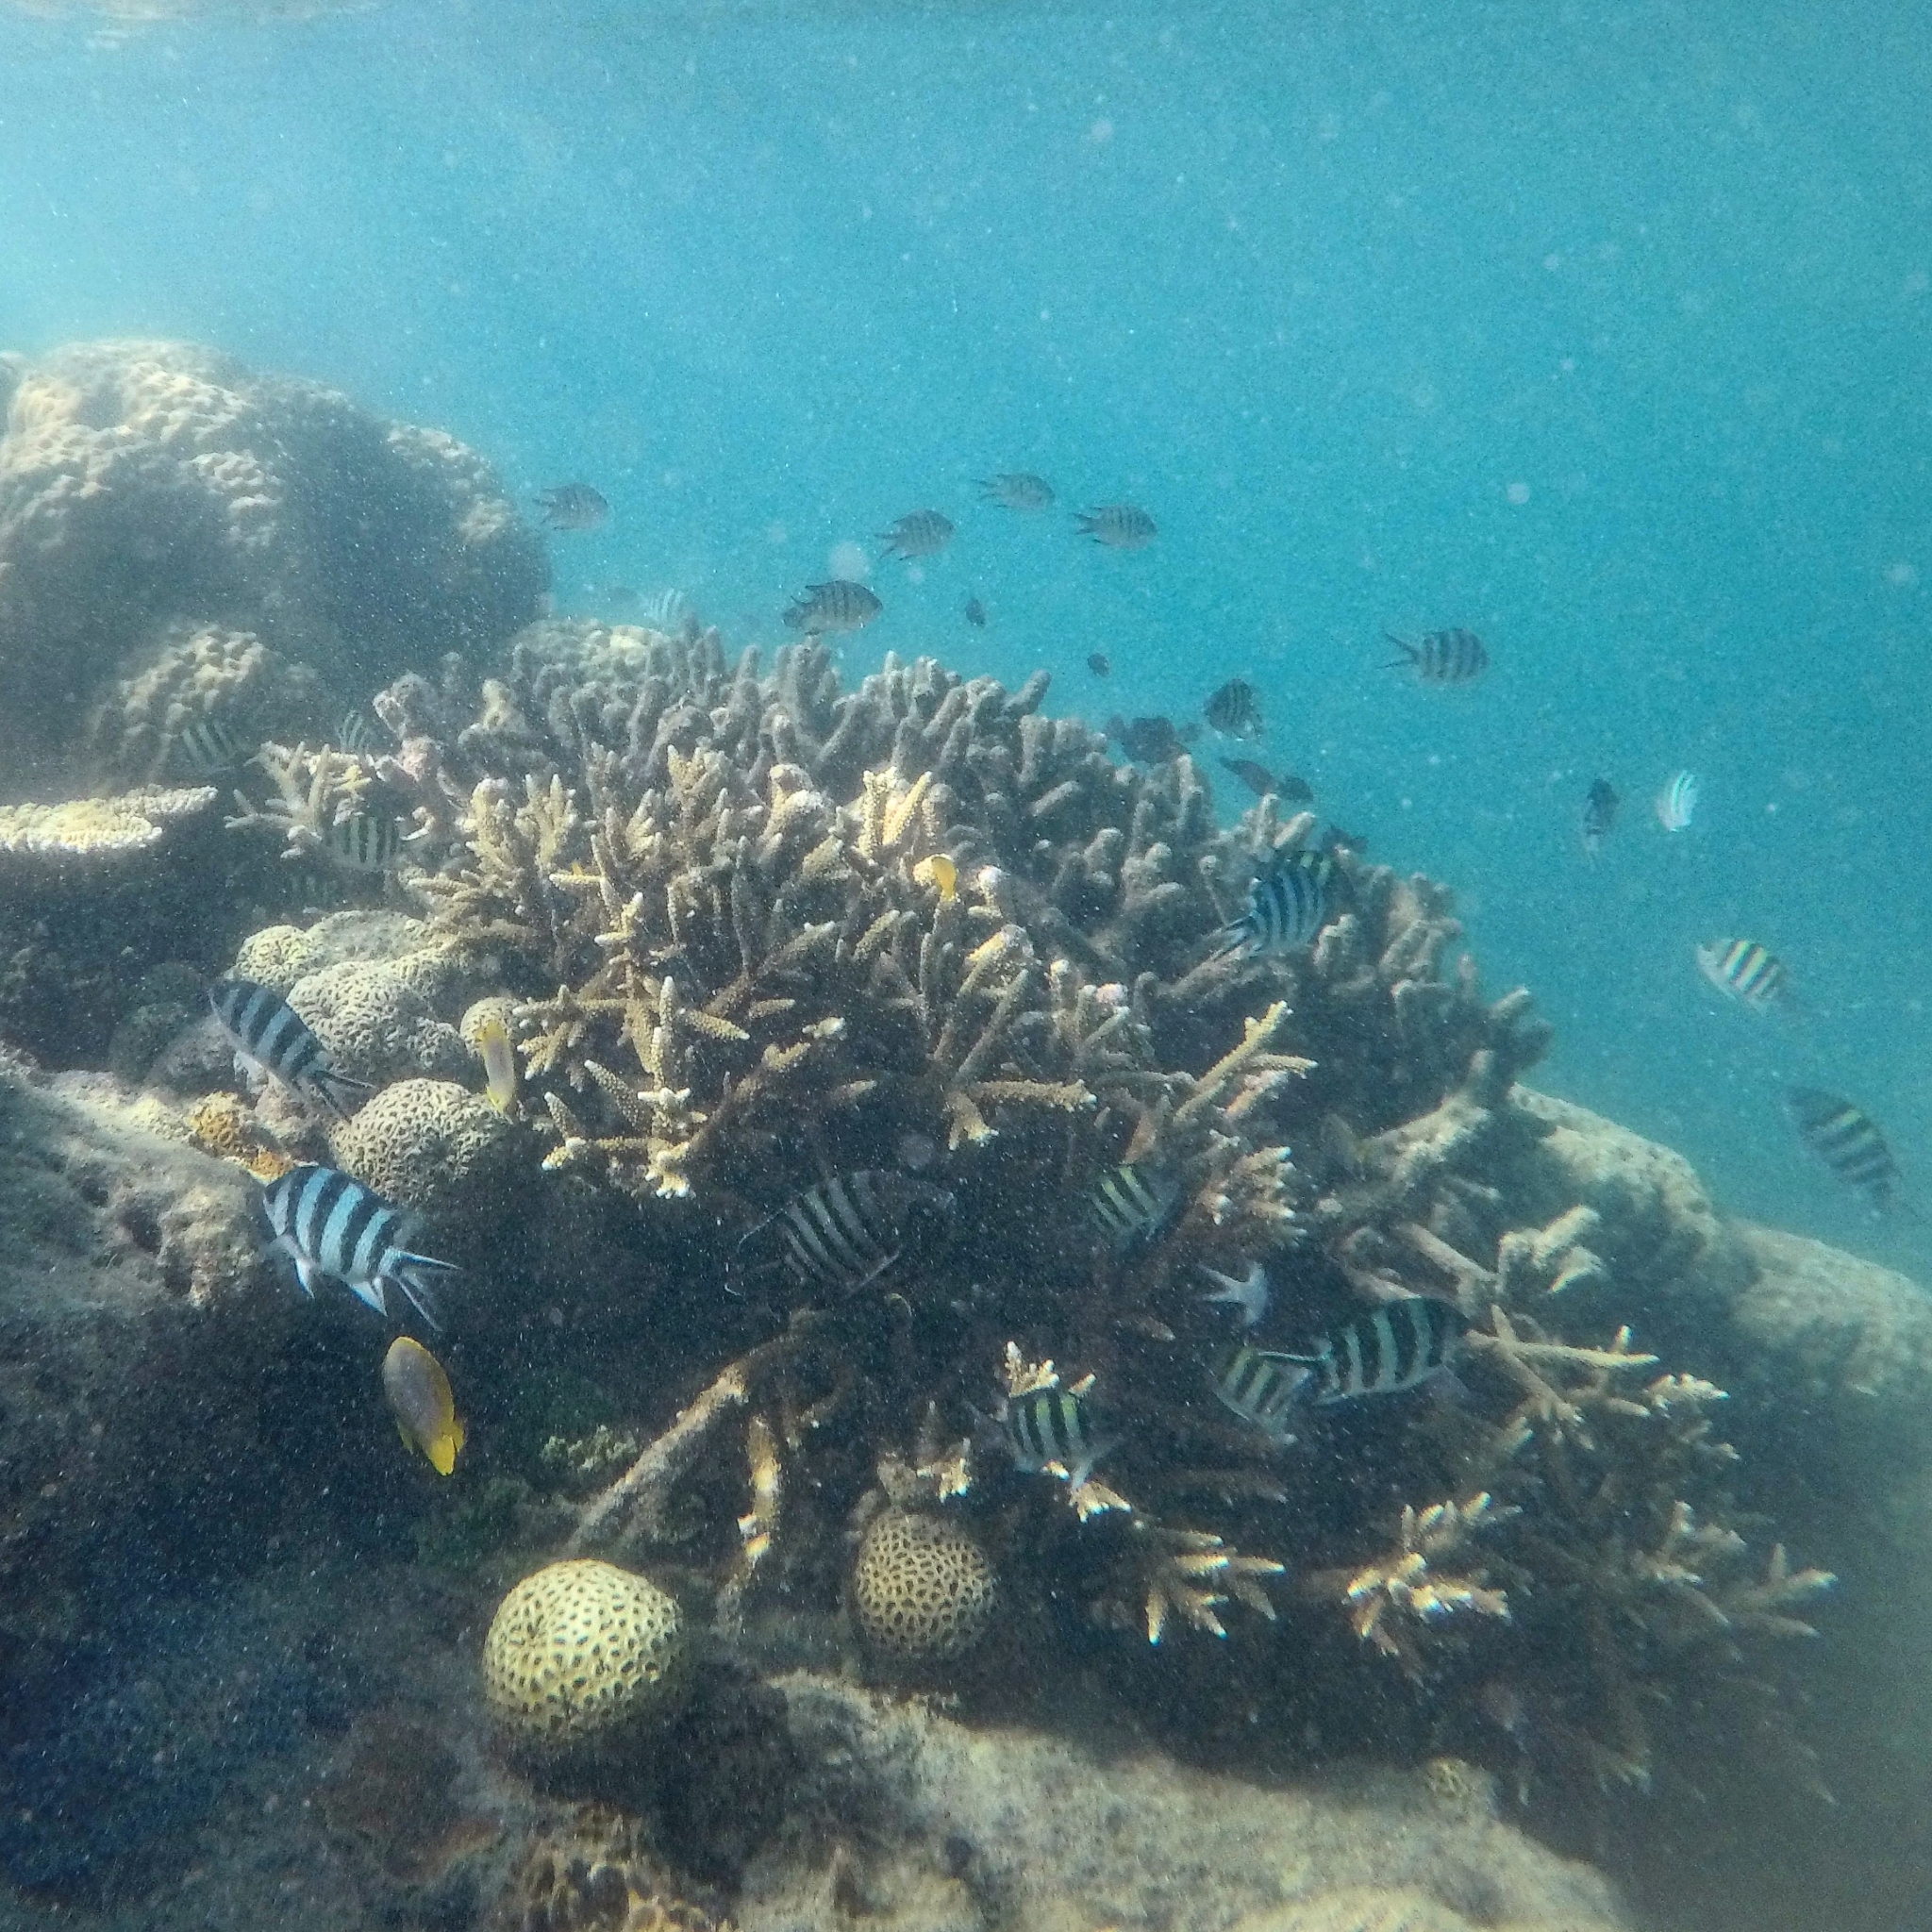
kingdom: Animalia
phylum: Chordata
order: Perciformes
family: Pomacentridae
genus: Abudefduf
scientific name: Abudefduf sexfasciatus
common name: Scissortail sergeant
